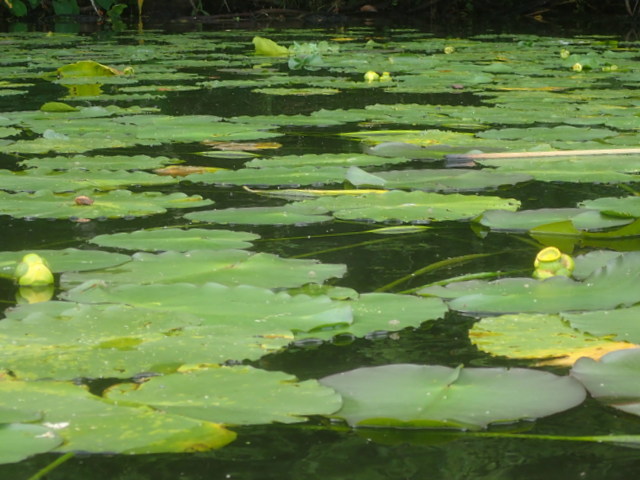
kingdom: Plantae
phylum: Tracheophyta
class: Magnoliopsida
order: Nymphaeales
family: Nymphaeaceae
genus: Nuphar
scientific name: Nuphar advena
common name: Spatter-dock
